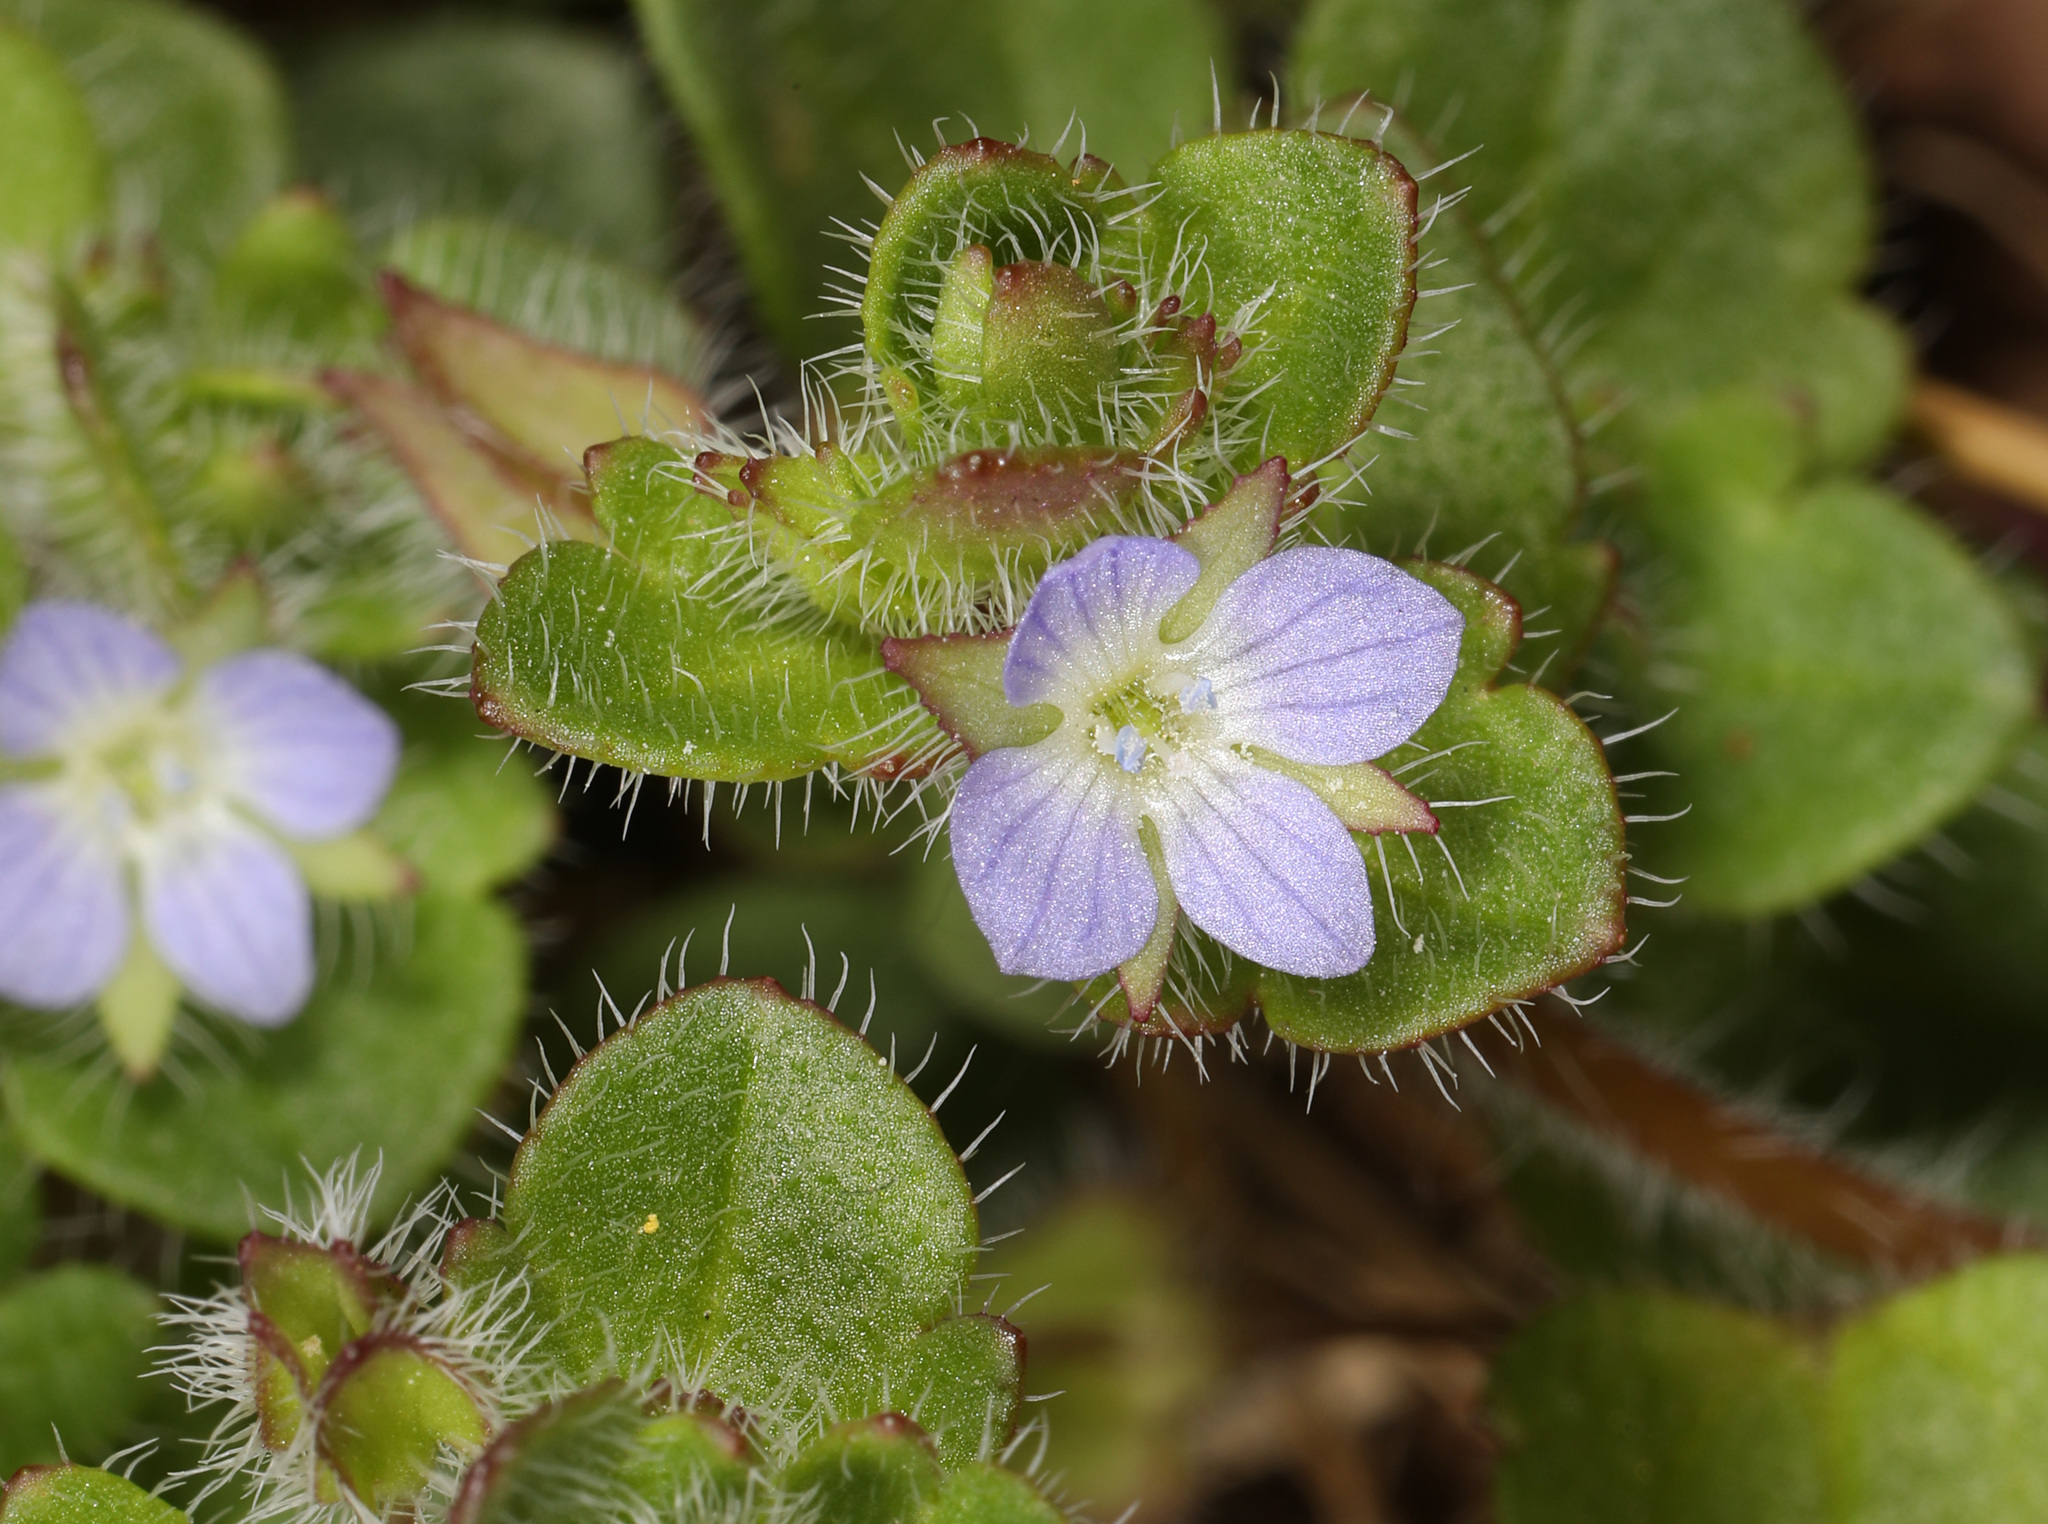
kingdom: Plantae
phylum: Tracheophyta
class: Magnoliopsida
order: Lamiales
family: Plantaginaceae
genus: Veronica
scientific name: Veronica hederifolia
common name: Ivy-leaved speedwell
